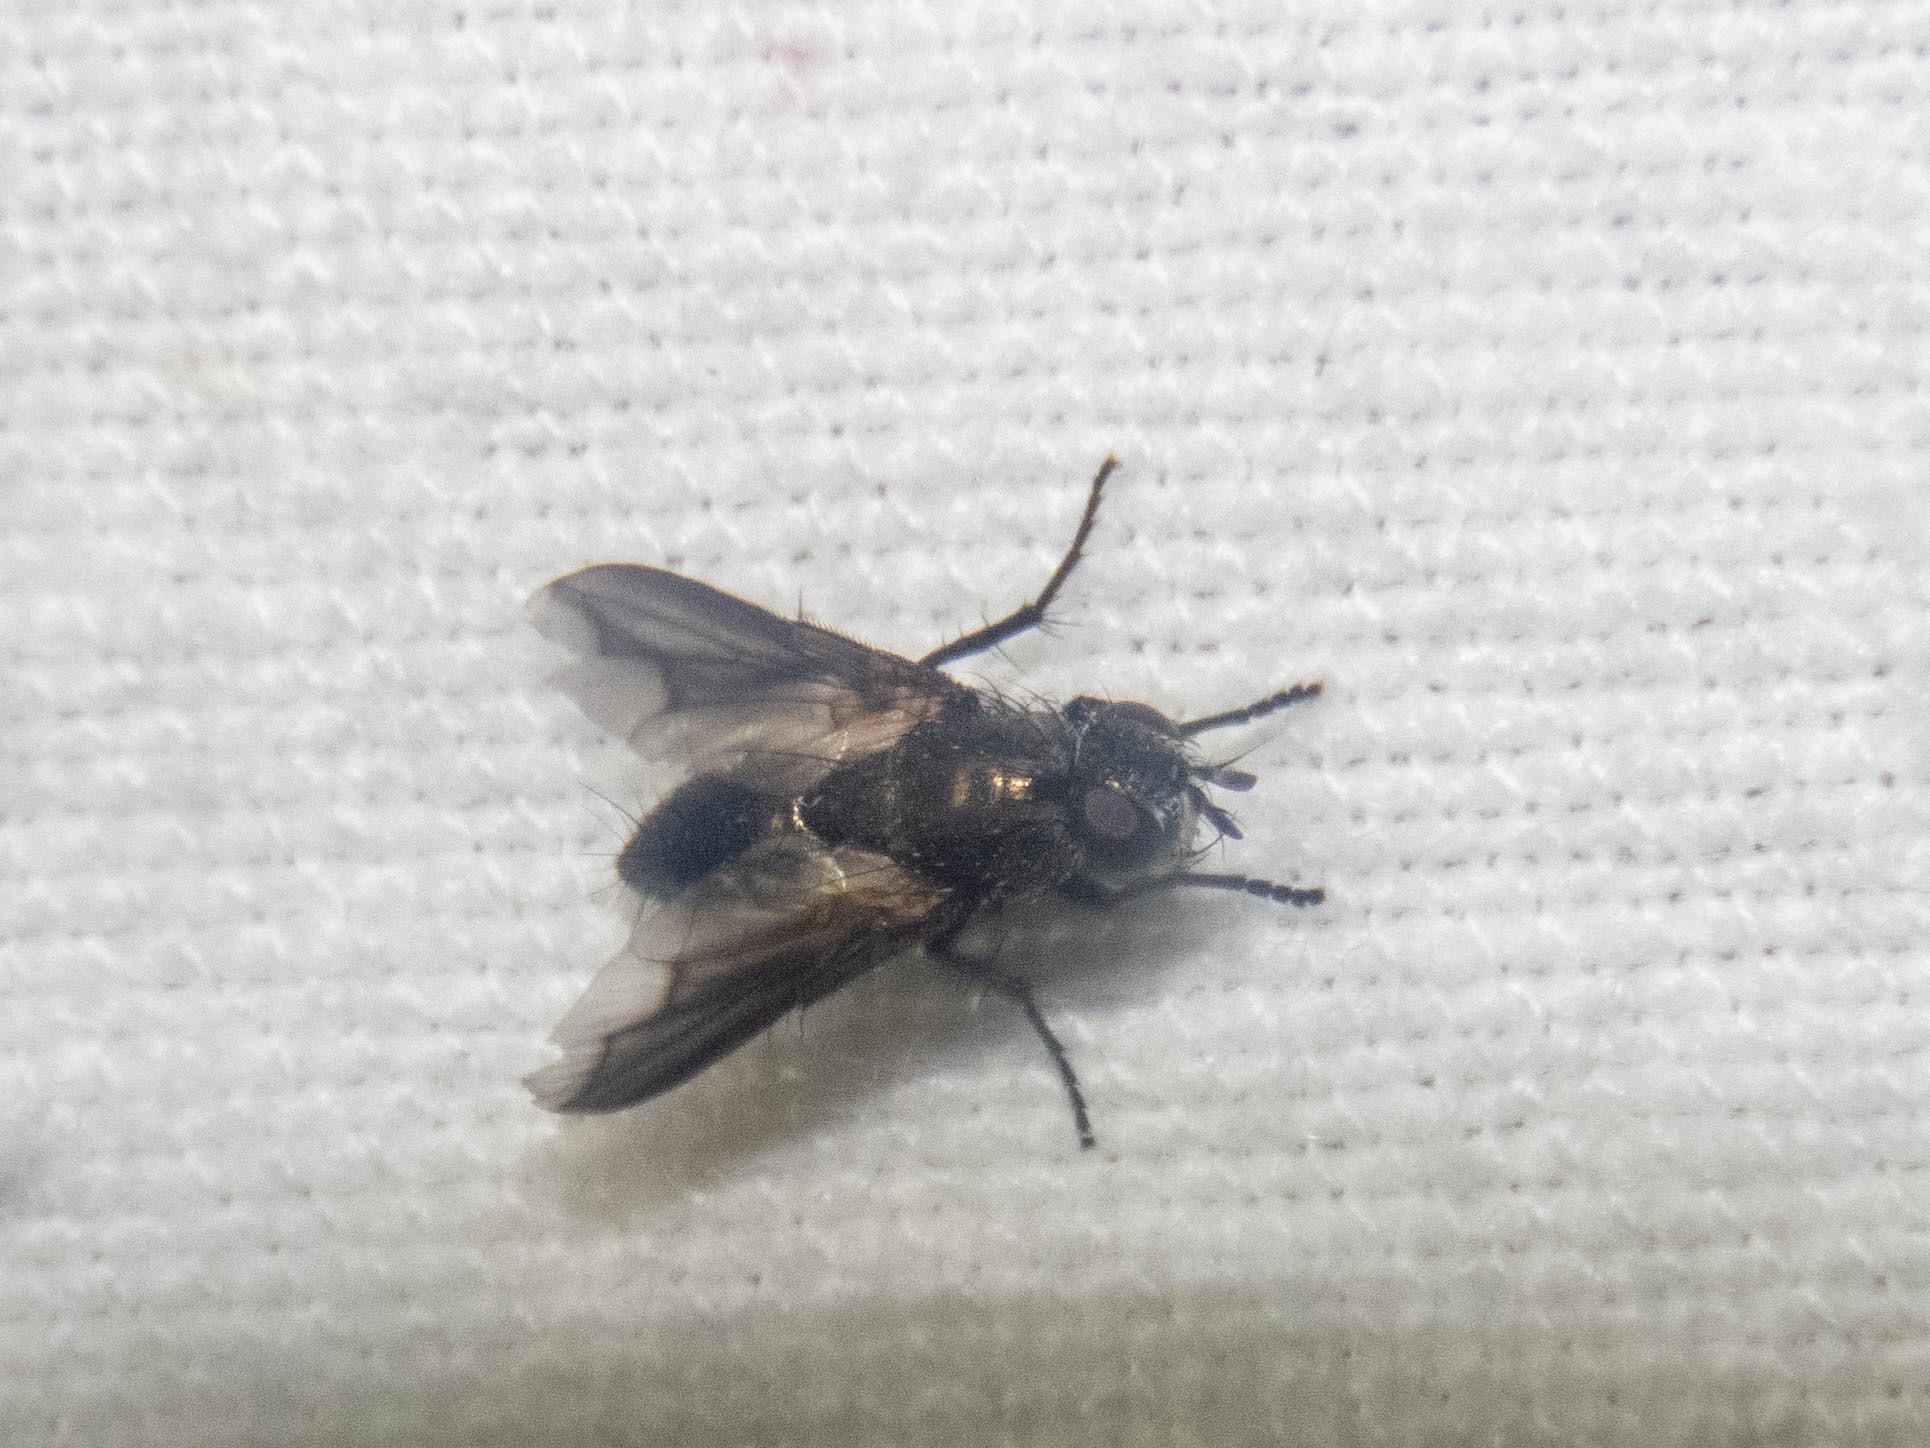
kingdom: Animalia
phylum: Arthropoda
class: Insecta
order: Diptera
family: Calliphoridae
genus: Melanophora
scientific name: Melanophora roralis
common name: Smoky-winged woodlouse-fly
